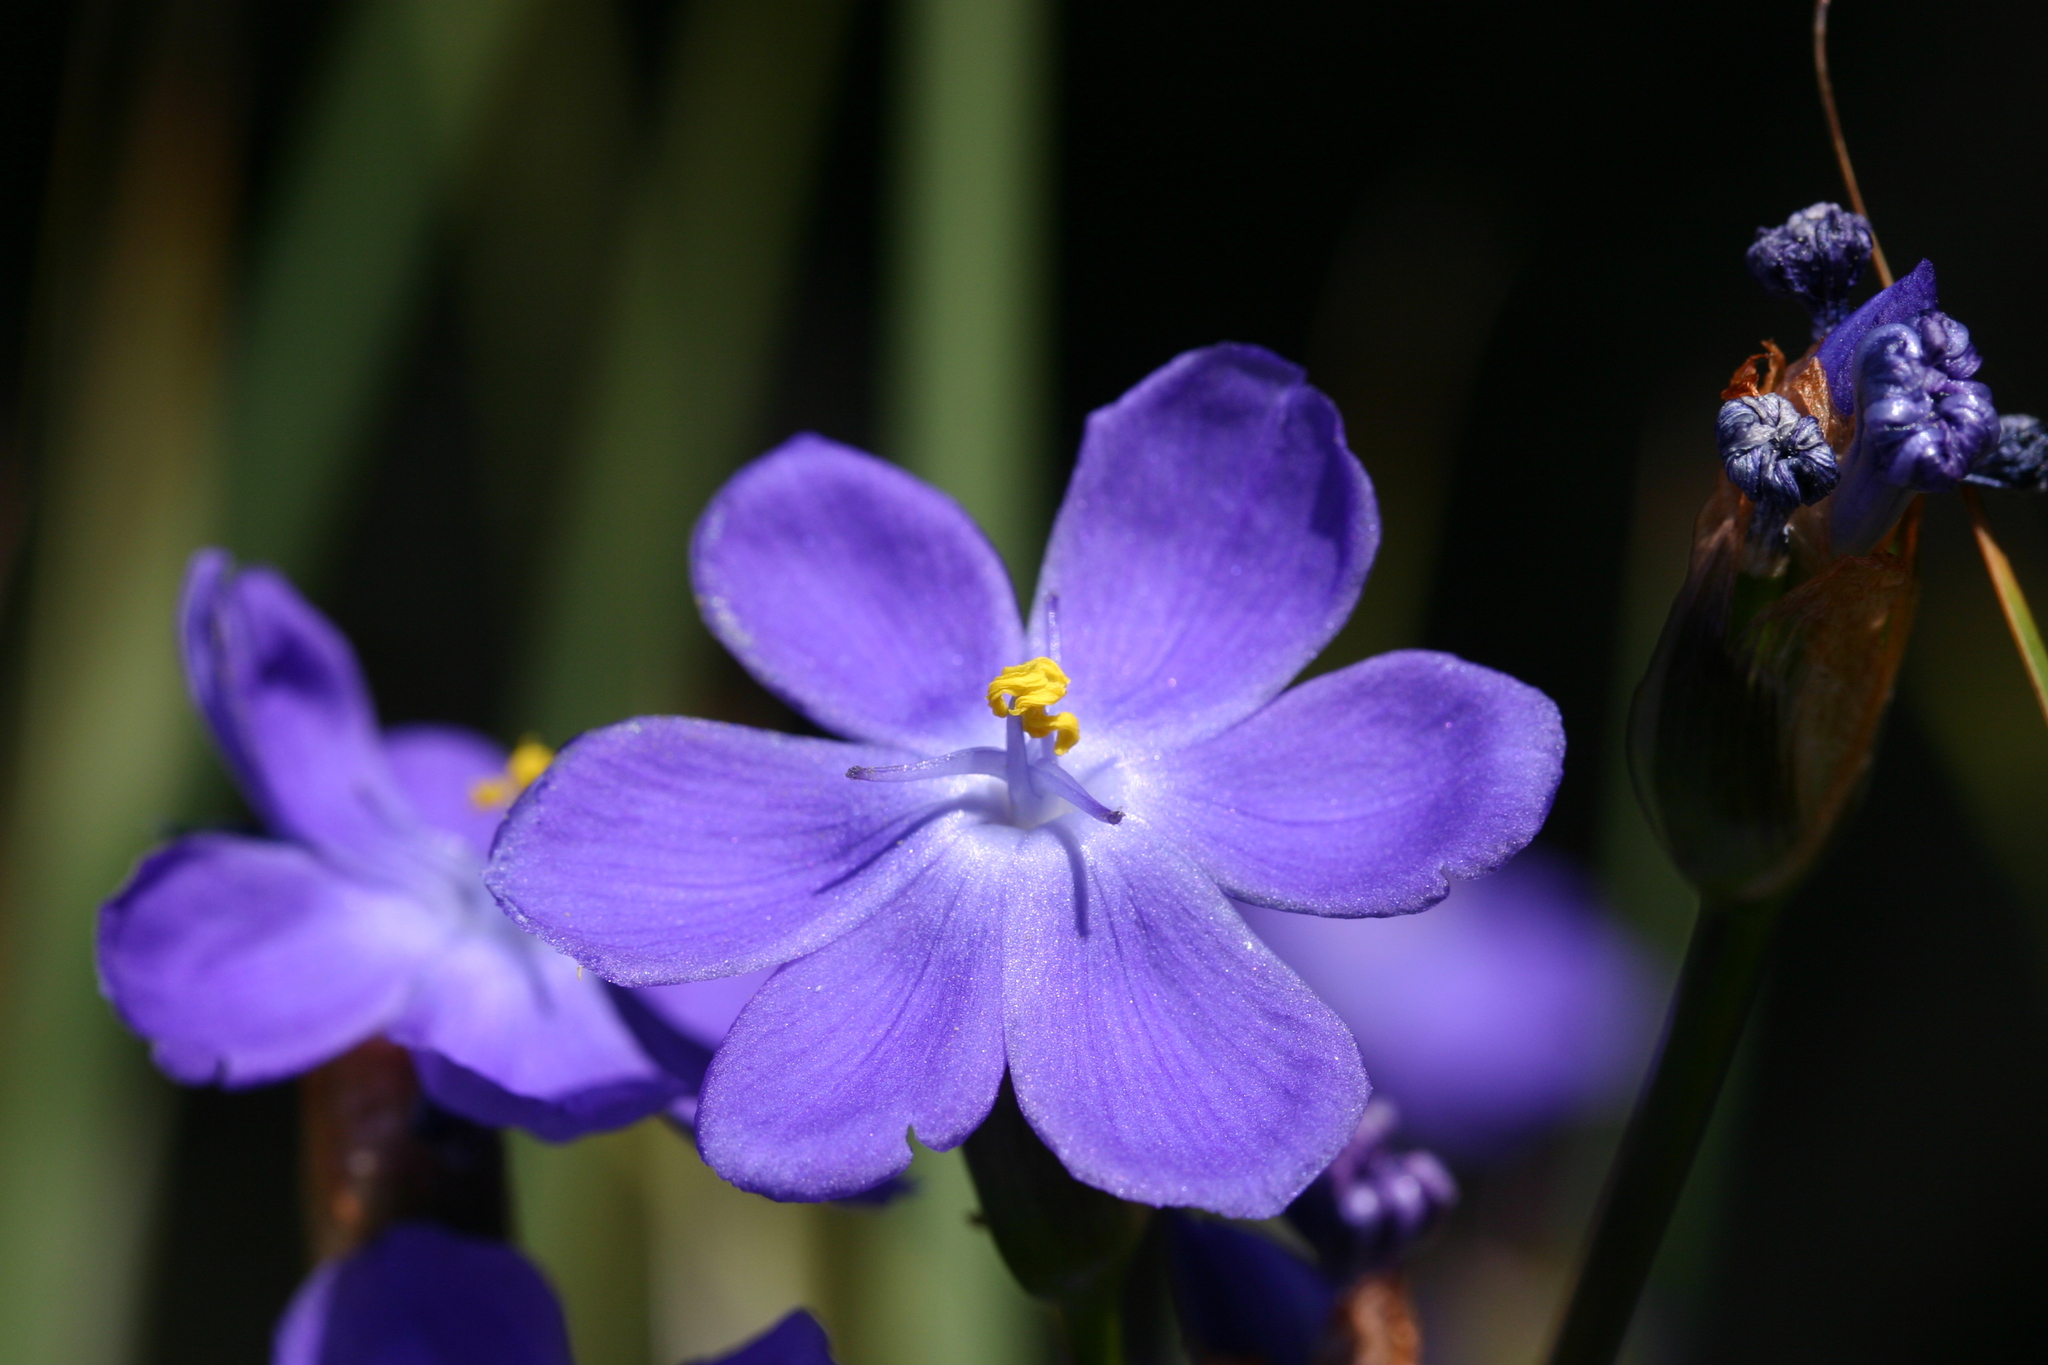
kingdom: Plantae
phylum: Tracheophyta
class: Liliopsida
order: Asparagales
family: Iridaceae
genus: Orthrosanthus
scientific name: Orthrosanthus multiflorus
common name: Morning-flag
